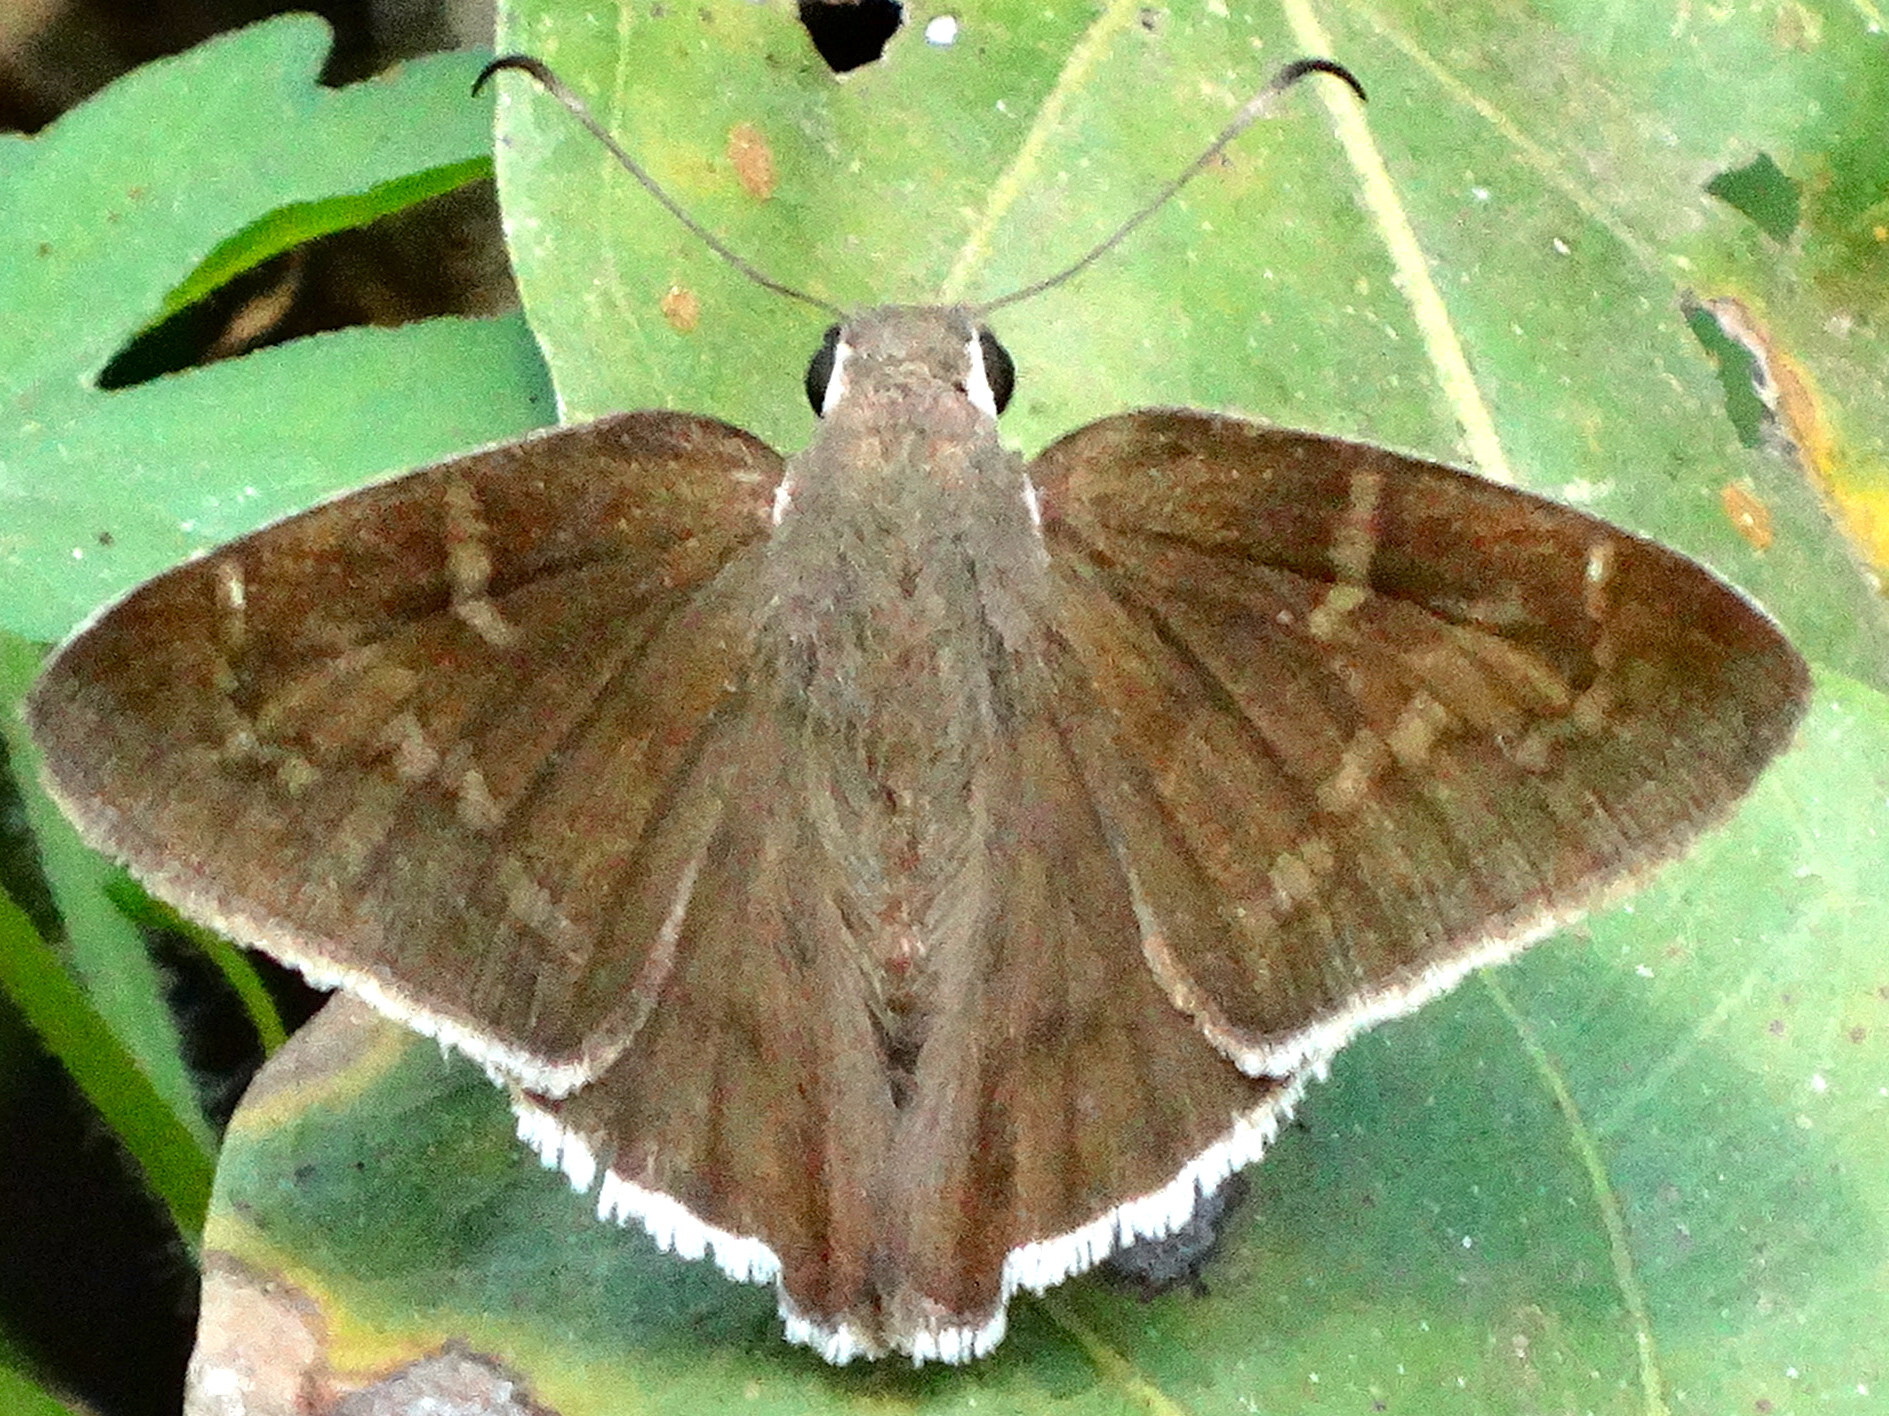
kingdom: Animalia
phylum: Arthropoda
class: Insecta
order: Lepidoptera
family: Hesperiidae
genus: Achalarus
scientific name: Achalarus
